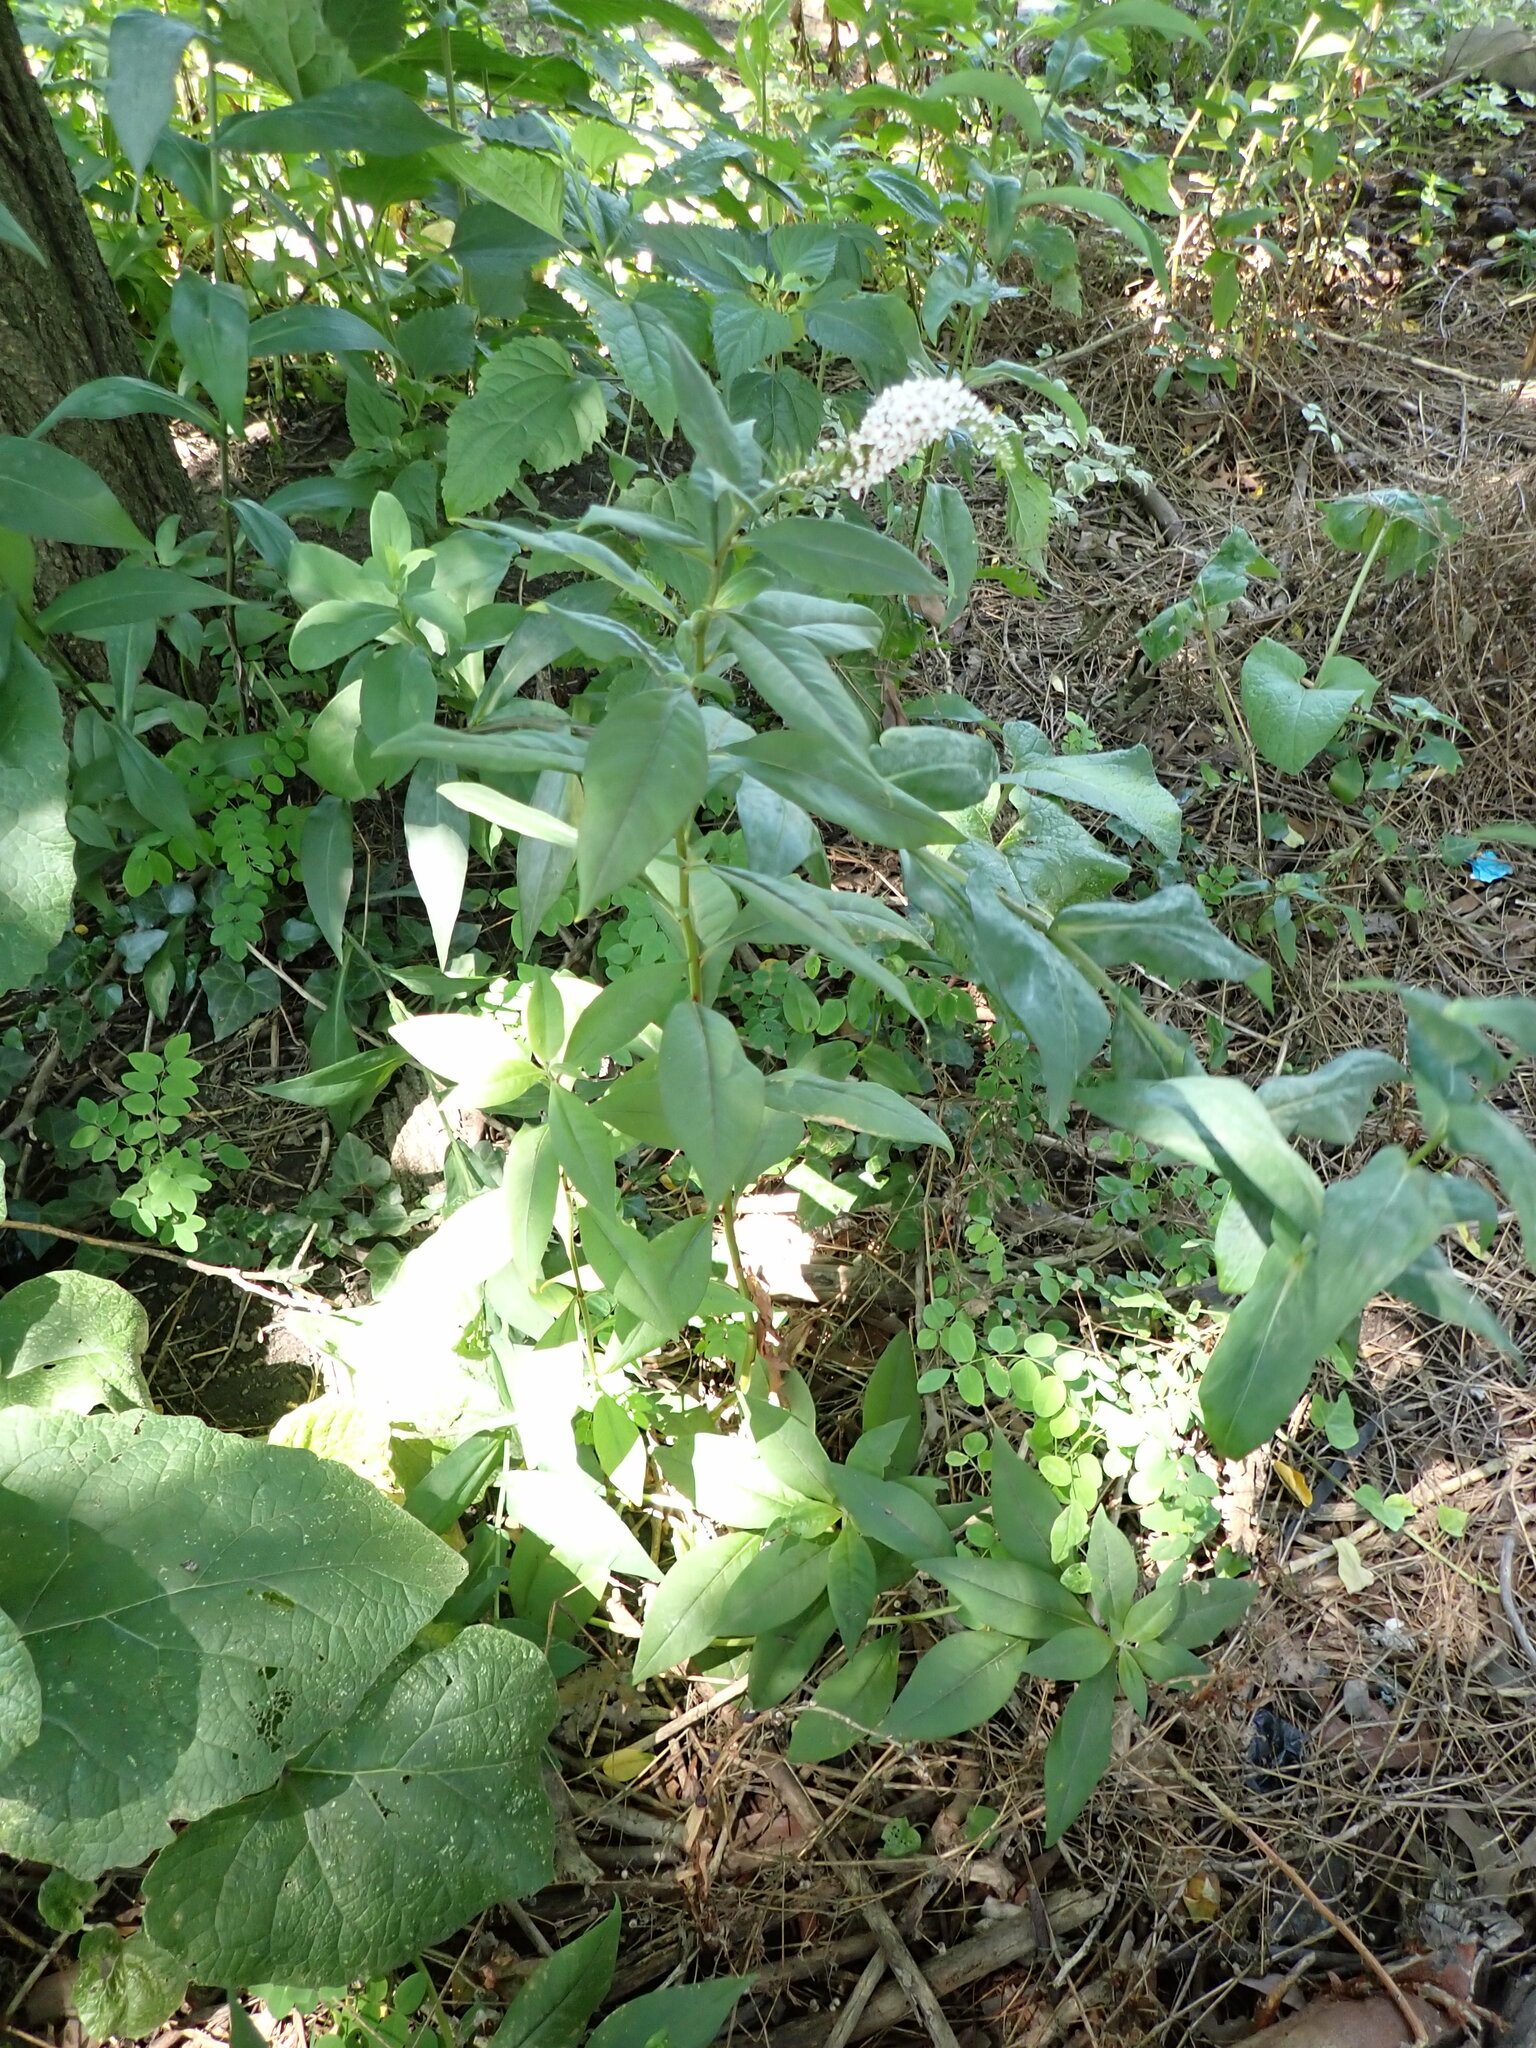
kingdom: Plantae
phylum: Tracheophyta
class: Magnoliopsida
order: Ericales
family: Primulaceae
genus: Lysimachia
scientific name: Lysimachia clethroides
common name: Gooseneck loosestrife
